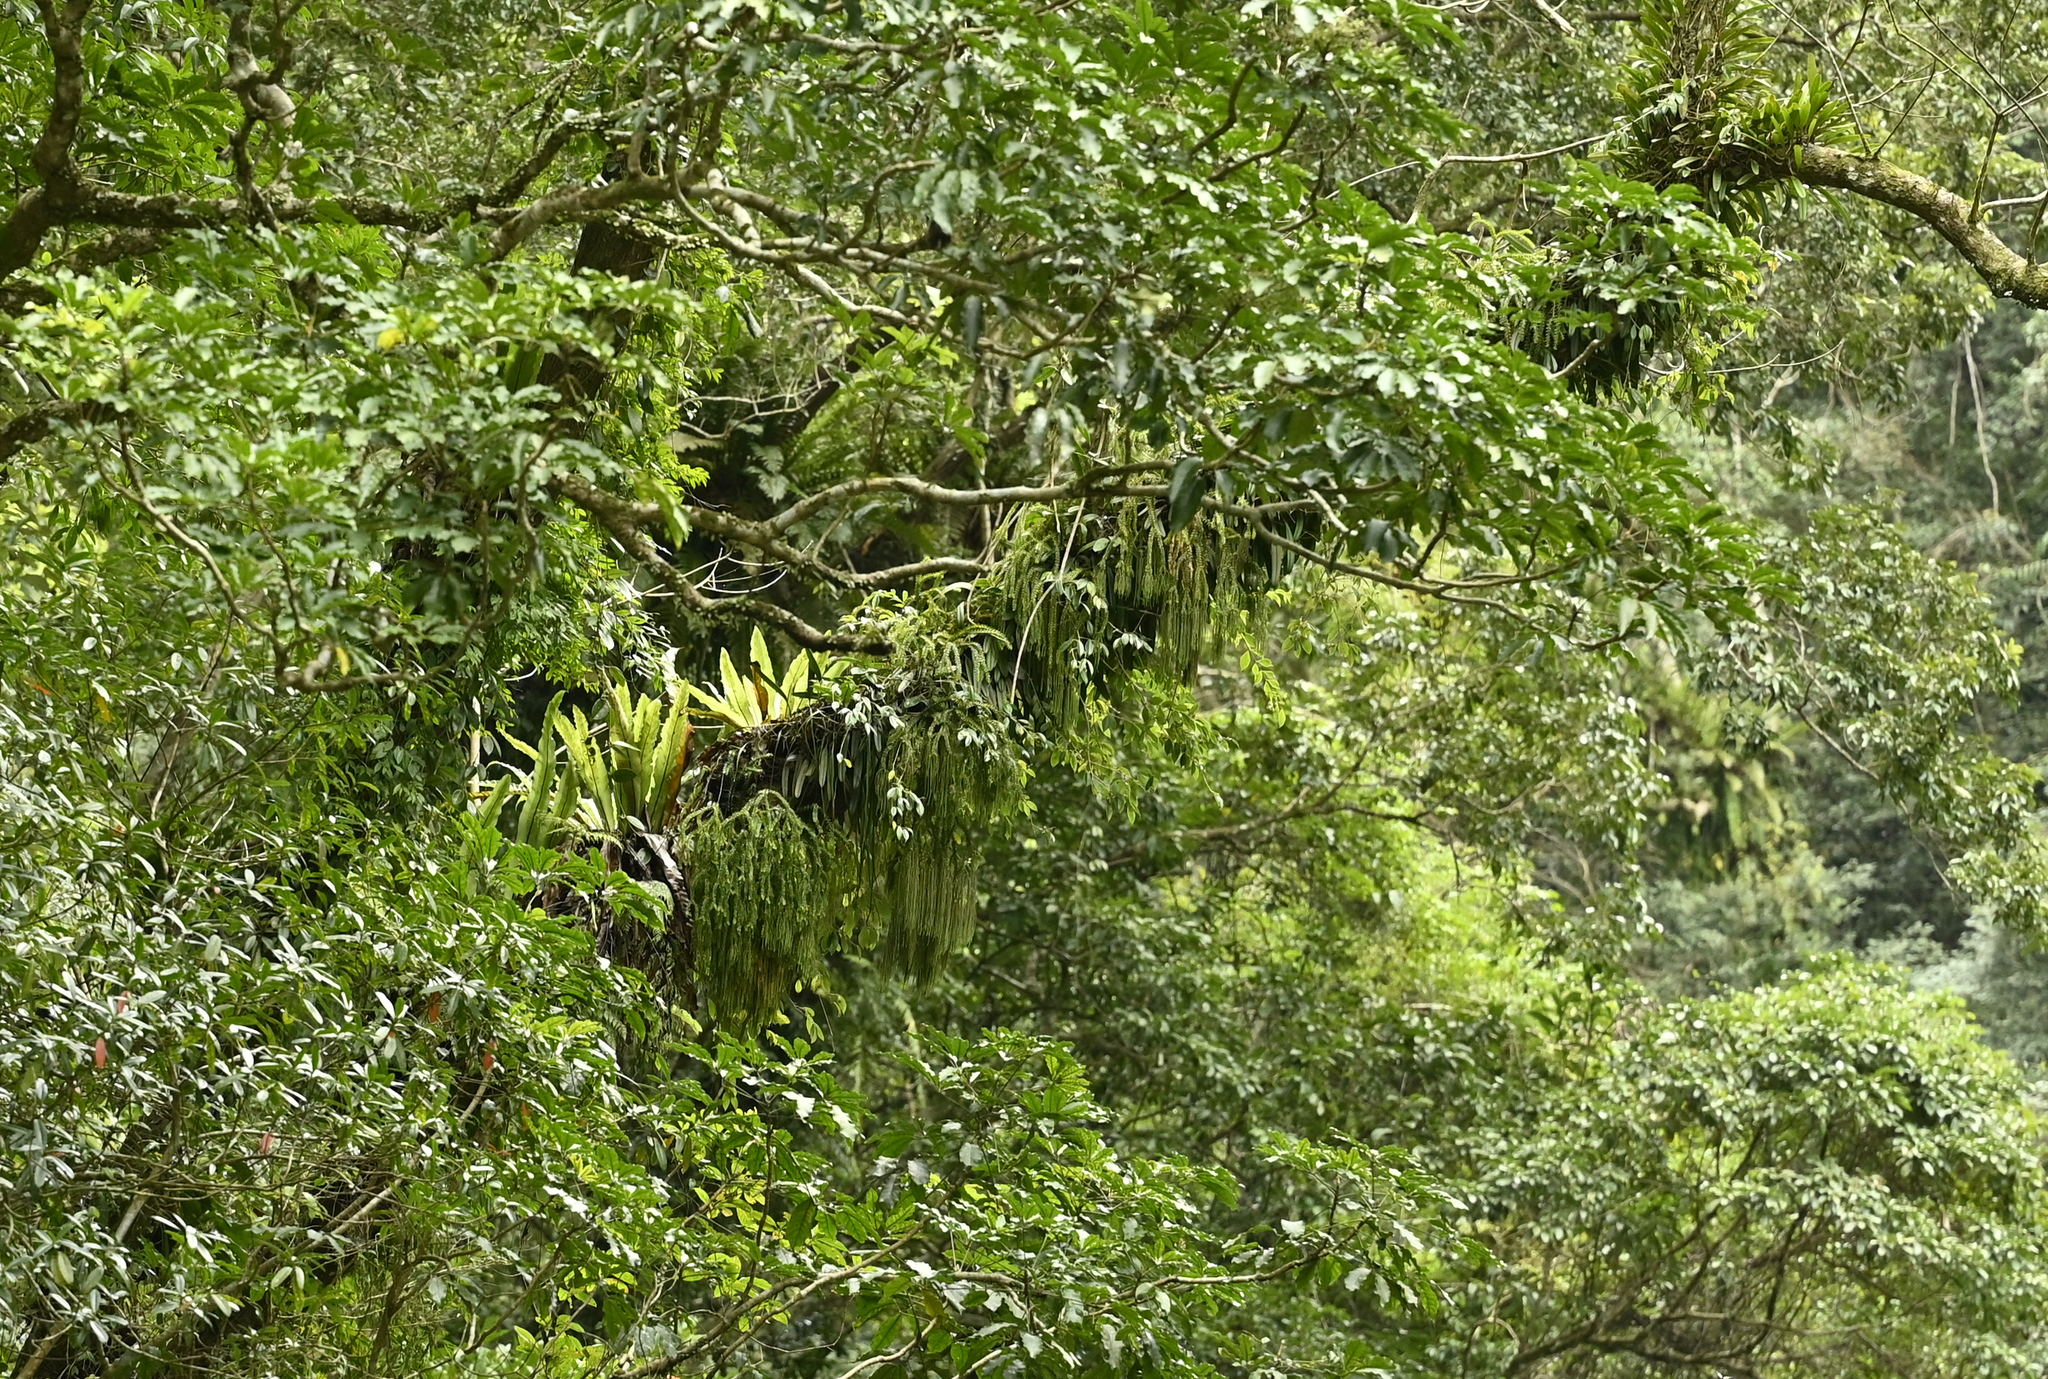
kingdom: Plantae
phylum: Tracheophyta
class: Lycopodiopsida
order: Lycopodiales
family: Lycopodiaceae
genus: Phlegmariurus
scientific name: Phlegmariurus phlegmaria
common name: Coarse tassel-fern
